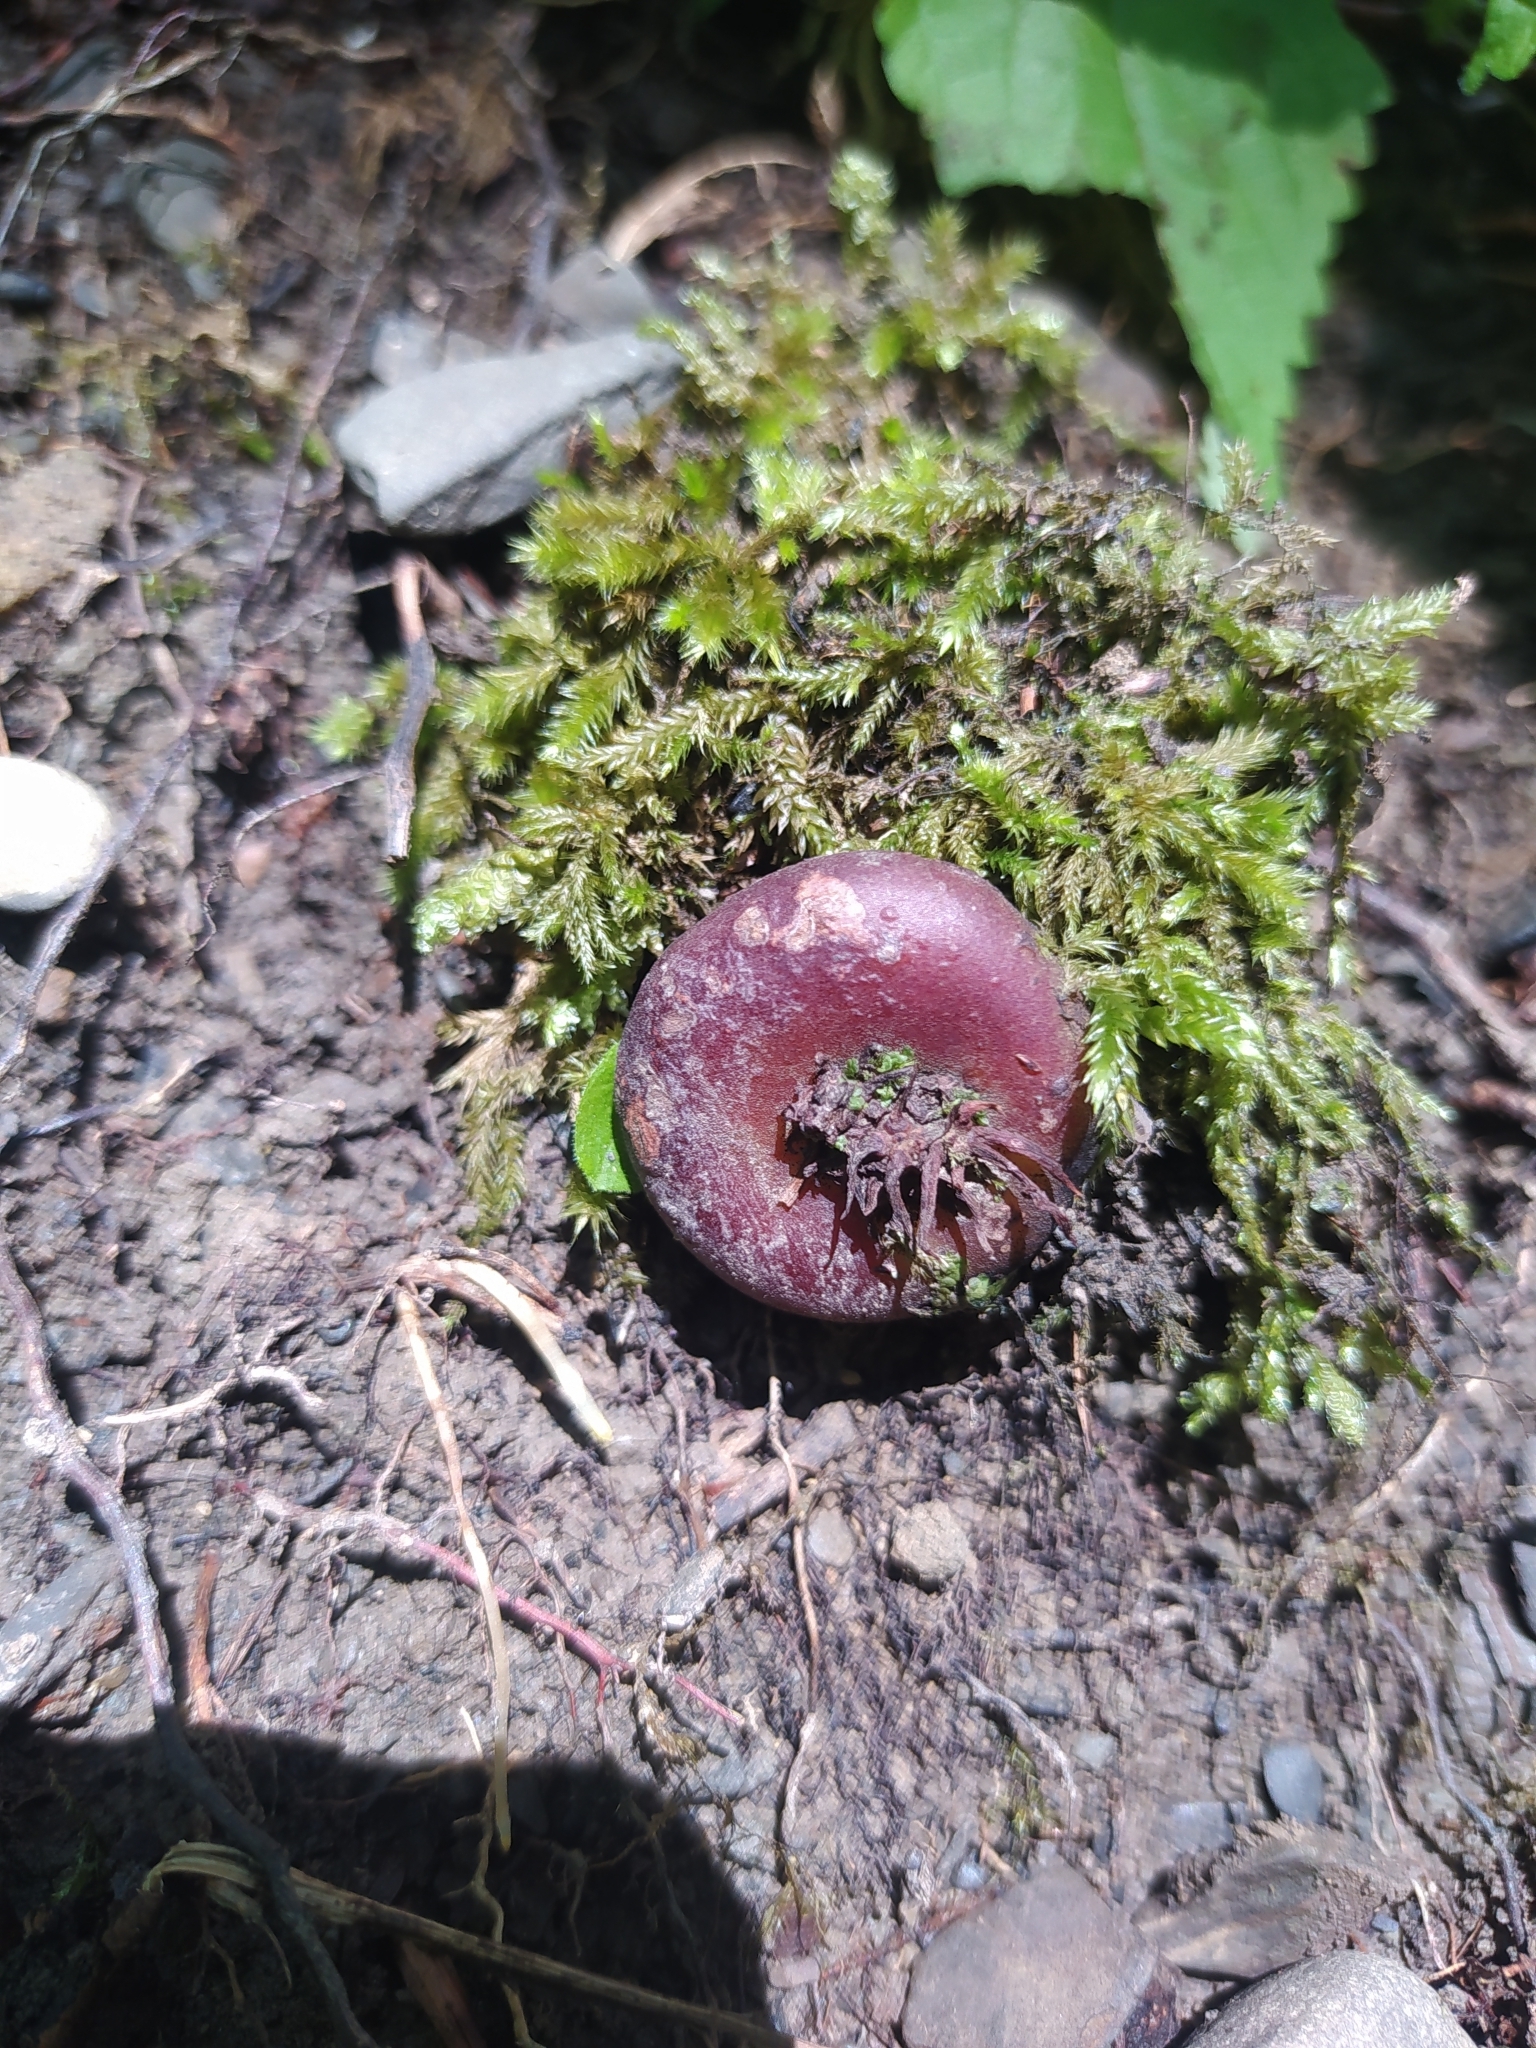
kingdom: Plantae
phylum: Tracheophyta
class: Magnoliopsida
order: Ericales
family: Primulaceae
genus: Cyclamen
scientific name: Cyclamen coum
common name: Eastern sowbread
